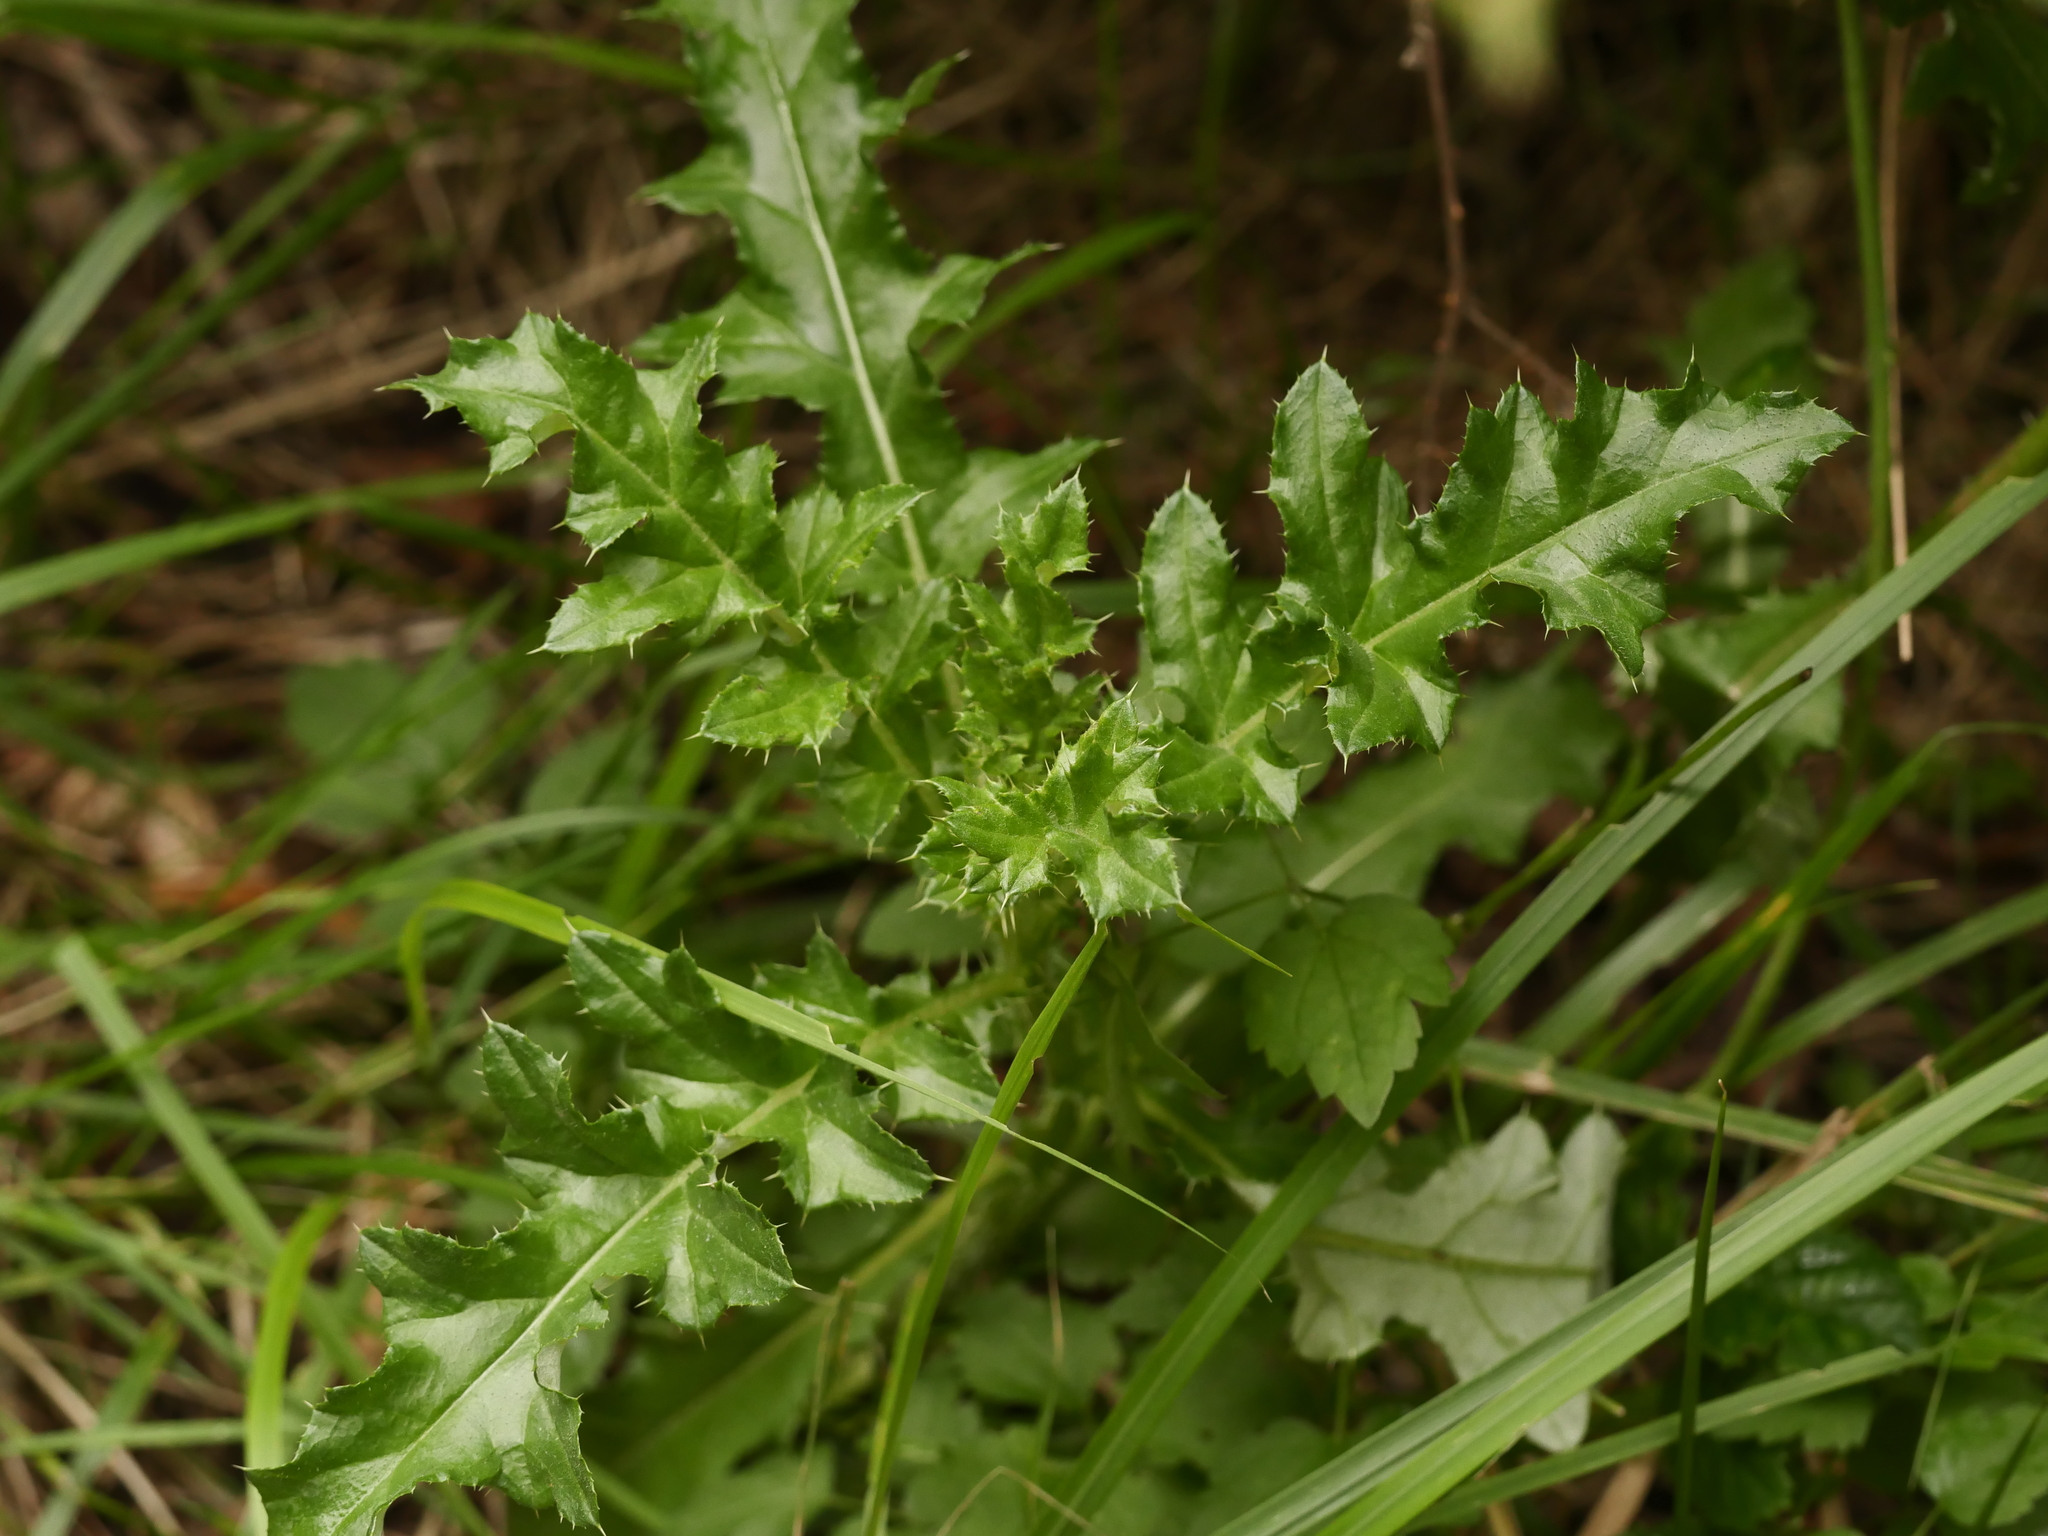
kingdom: Plantae
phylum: Tracheophyta
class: Magnoliopsida
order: Asterales
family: Asteraceae
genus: Cirsium
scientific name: Cirsium arvense
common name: Creeping thistle
